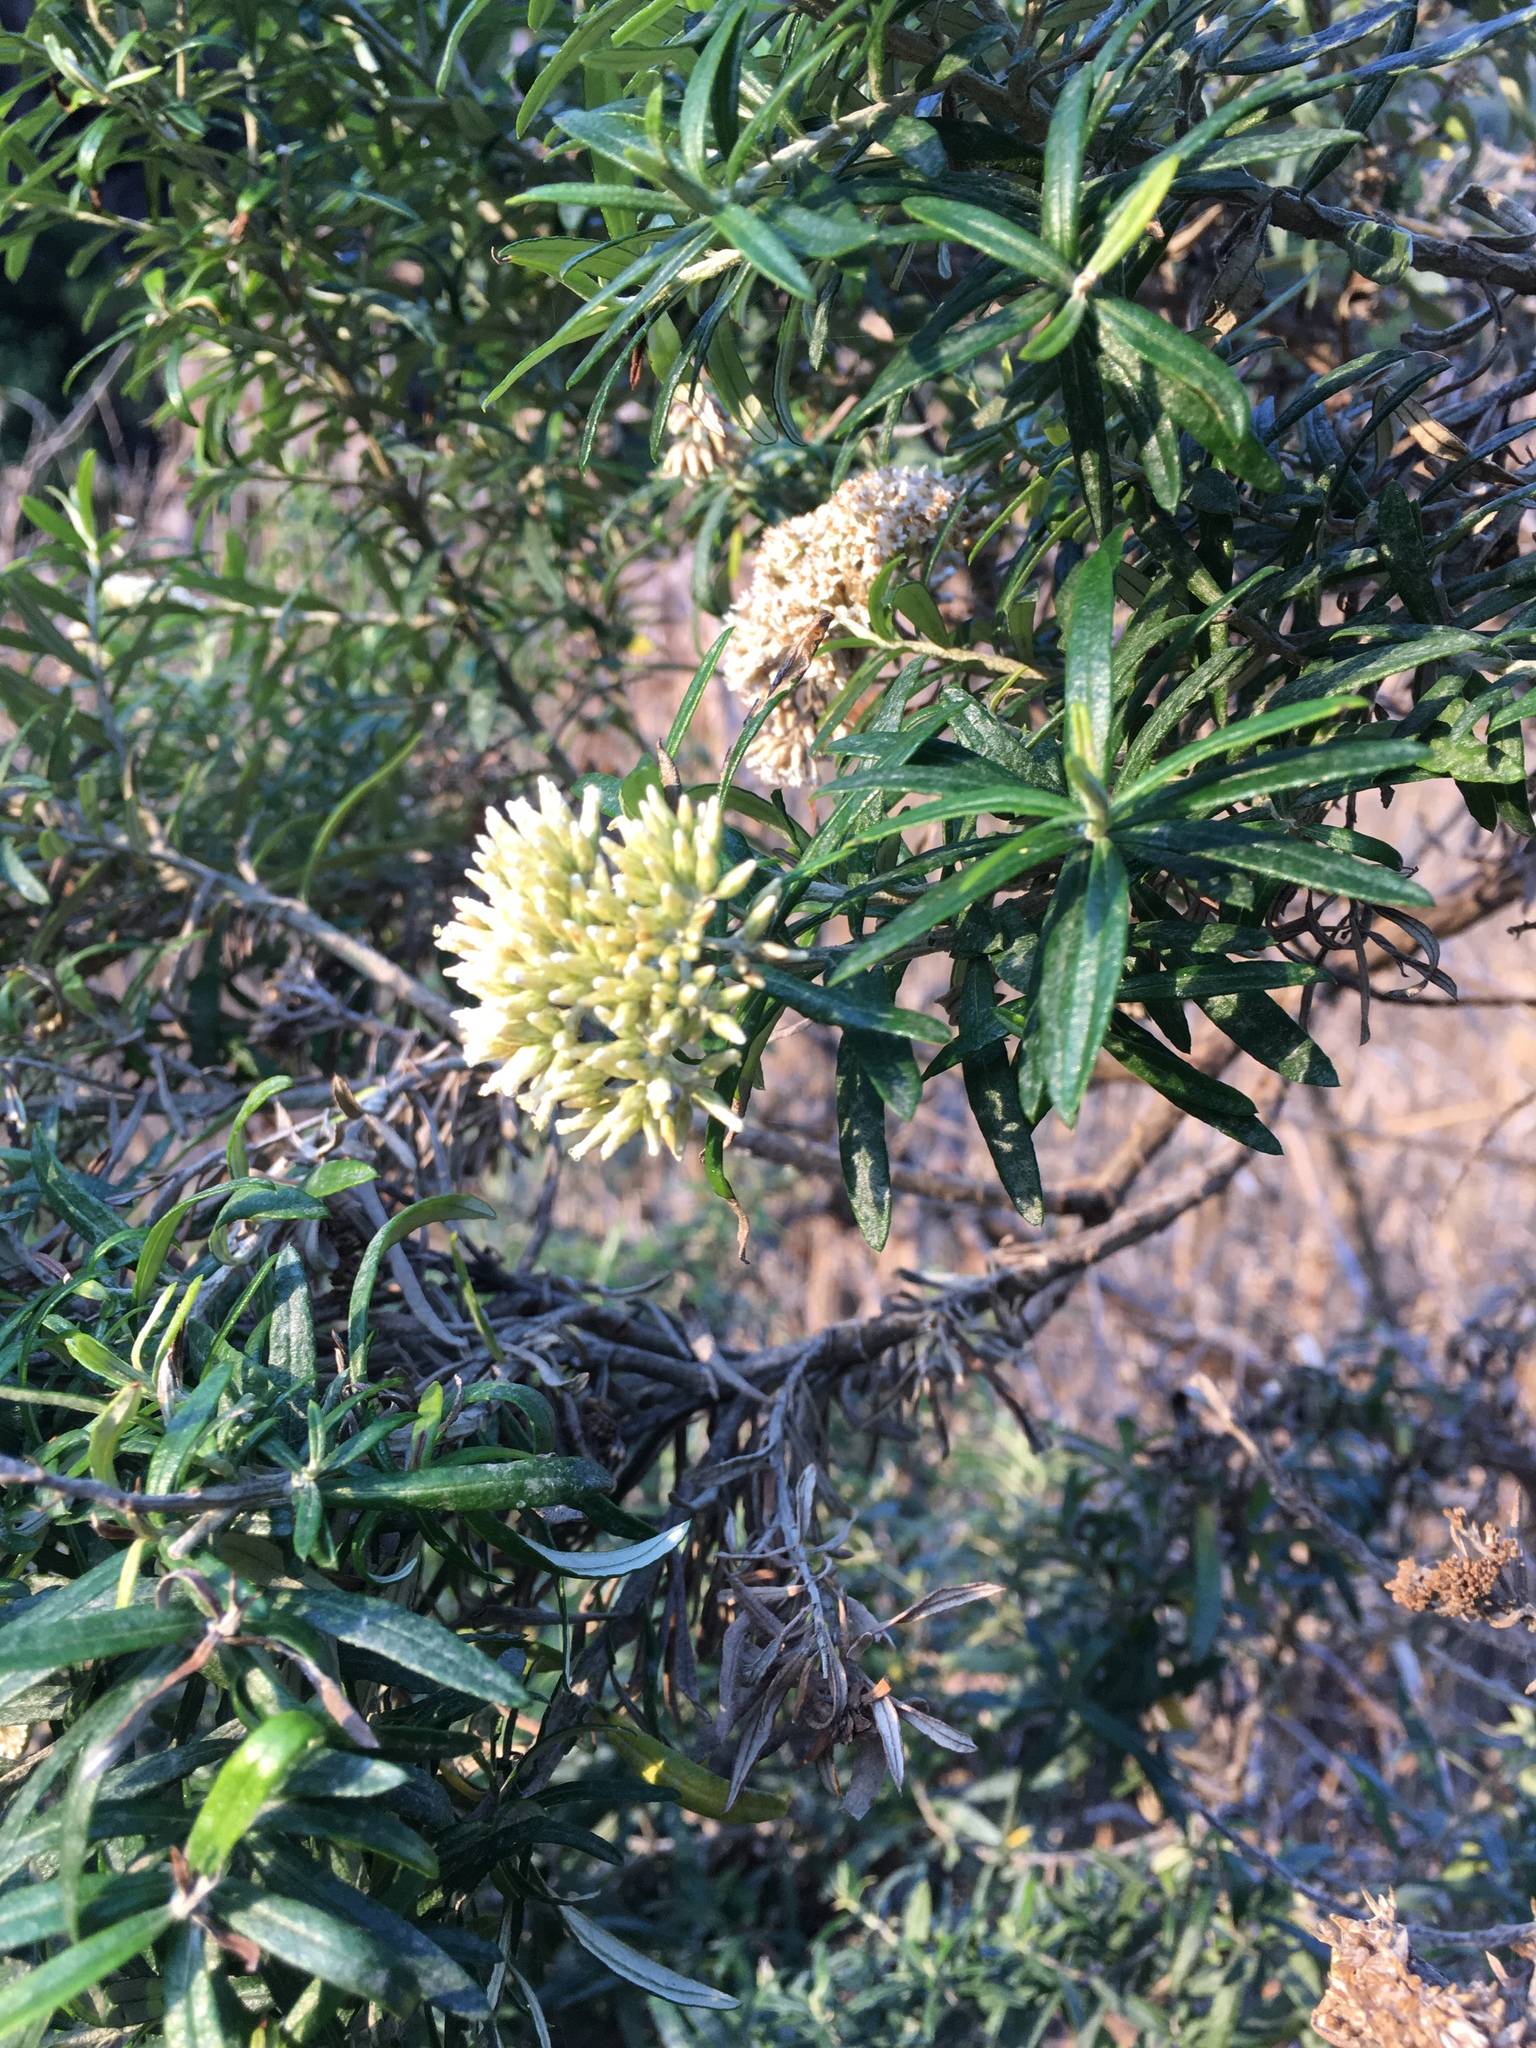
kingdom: Plantae
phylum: Tracheophyta
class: Magnoliopsida
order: Asterales
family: Asteraceae
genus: Ozothamnus
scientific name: Ozothamnus ferrugineus
